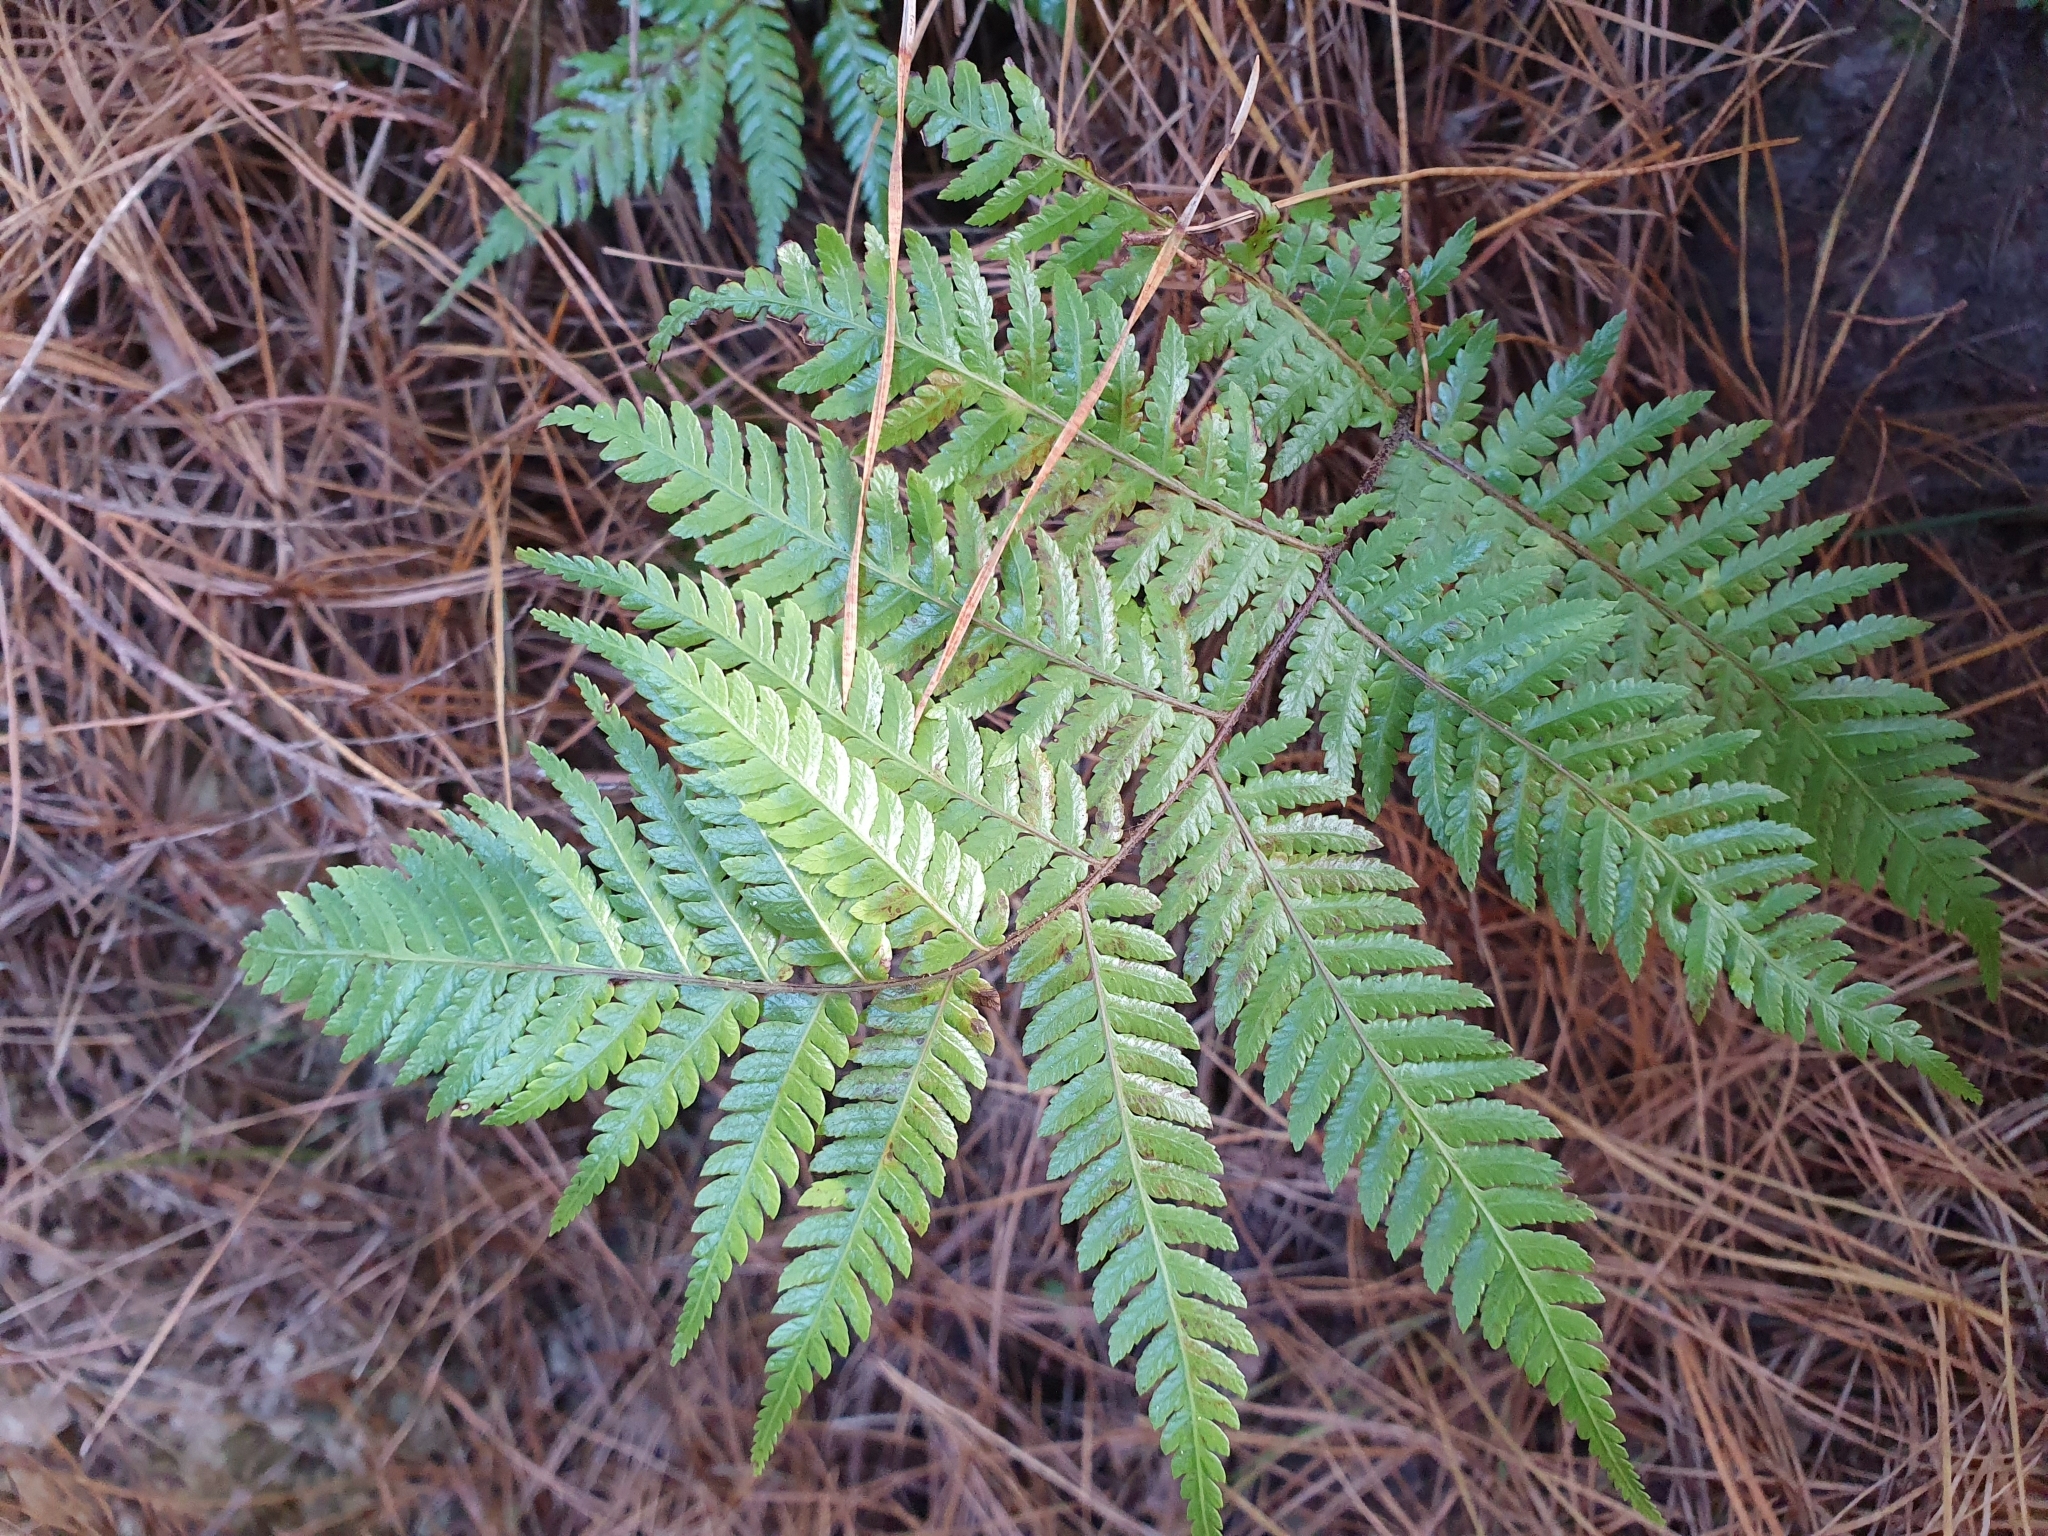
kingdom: Plantae
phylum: Tracheophyta
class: Polypodiopsida
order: Cyatheales
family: Cyatheaceae
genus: Alsophila
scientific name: Alsophila dealbata
